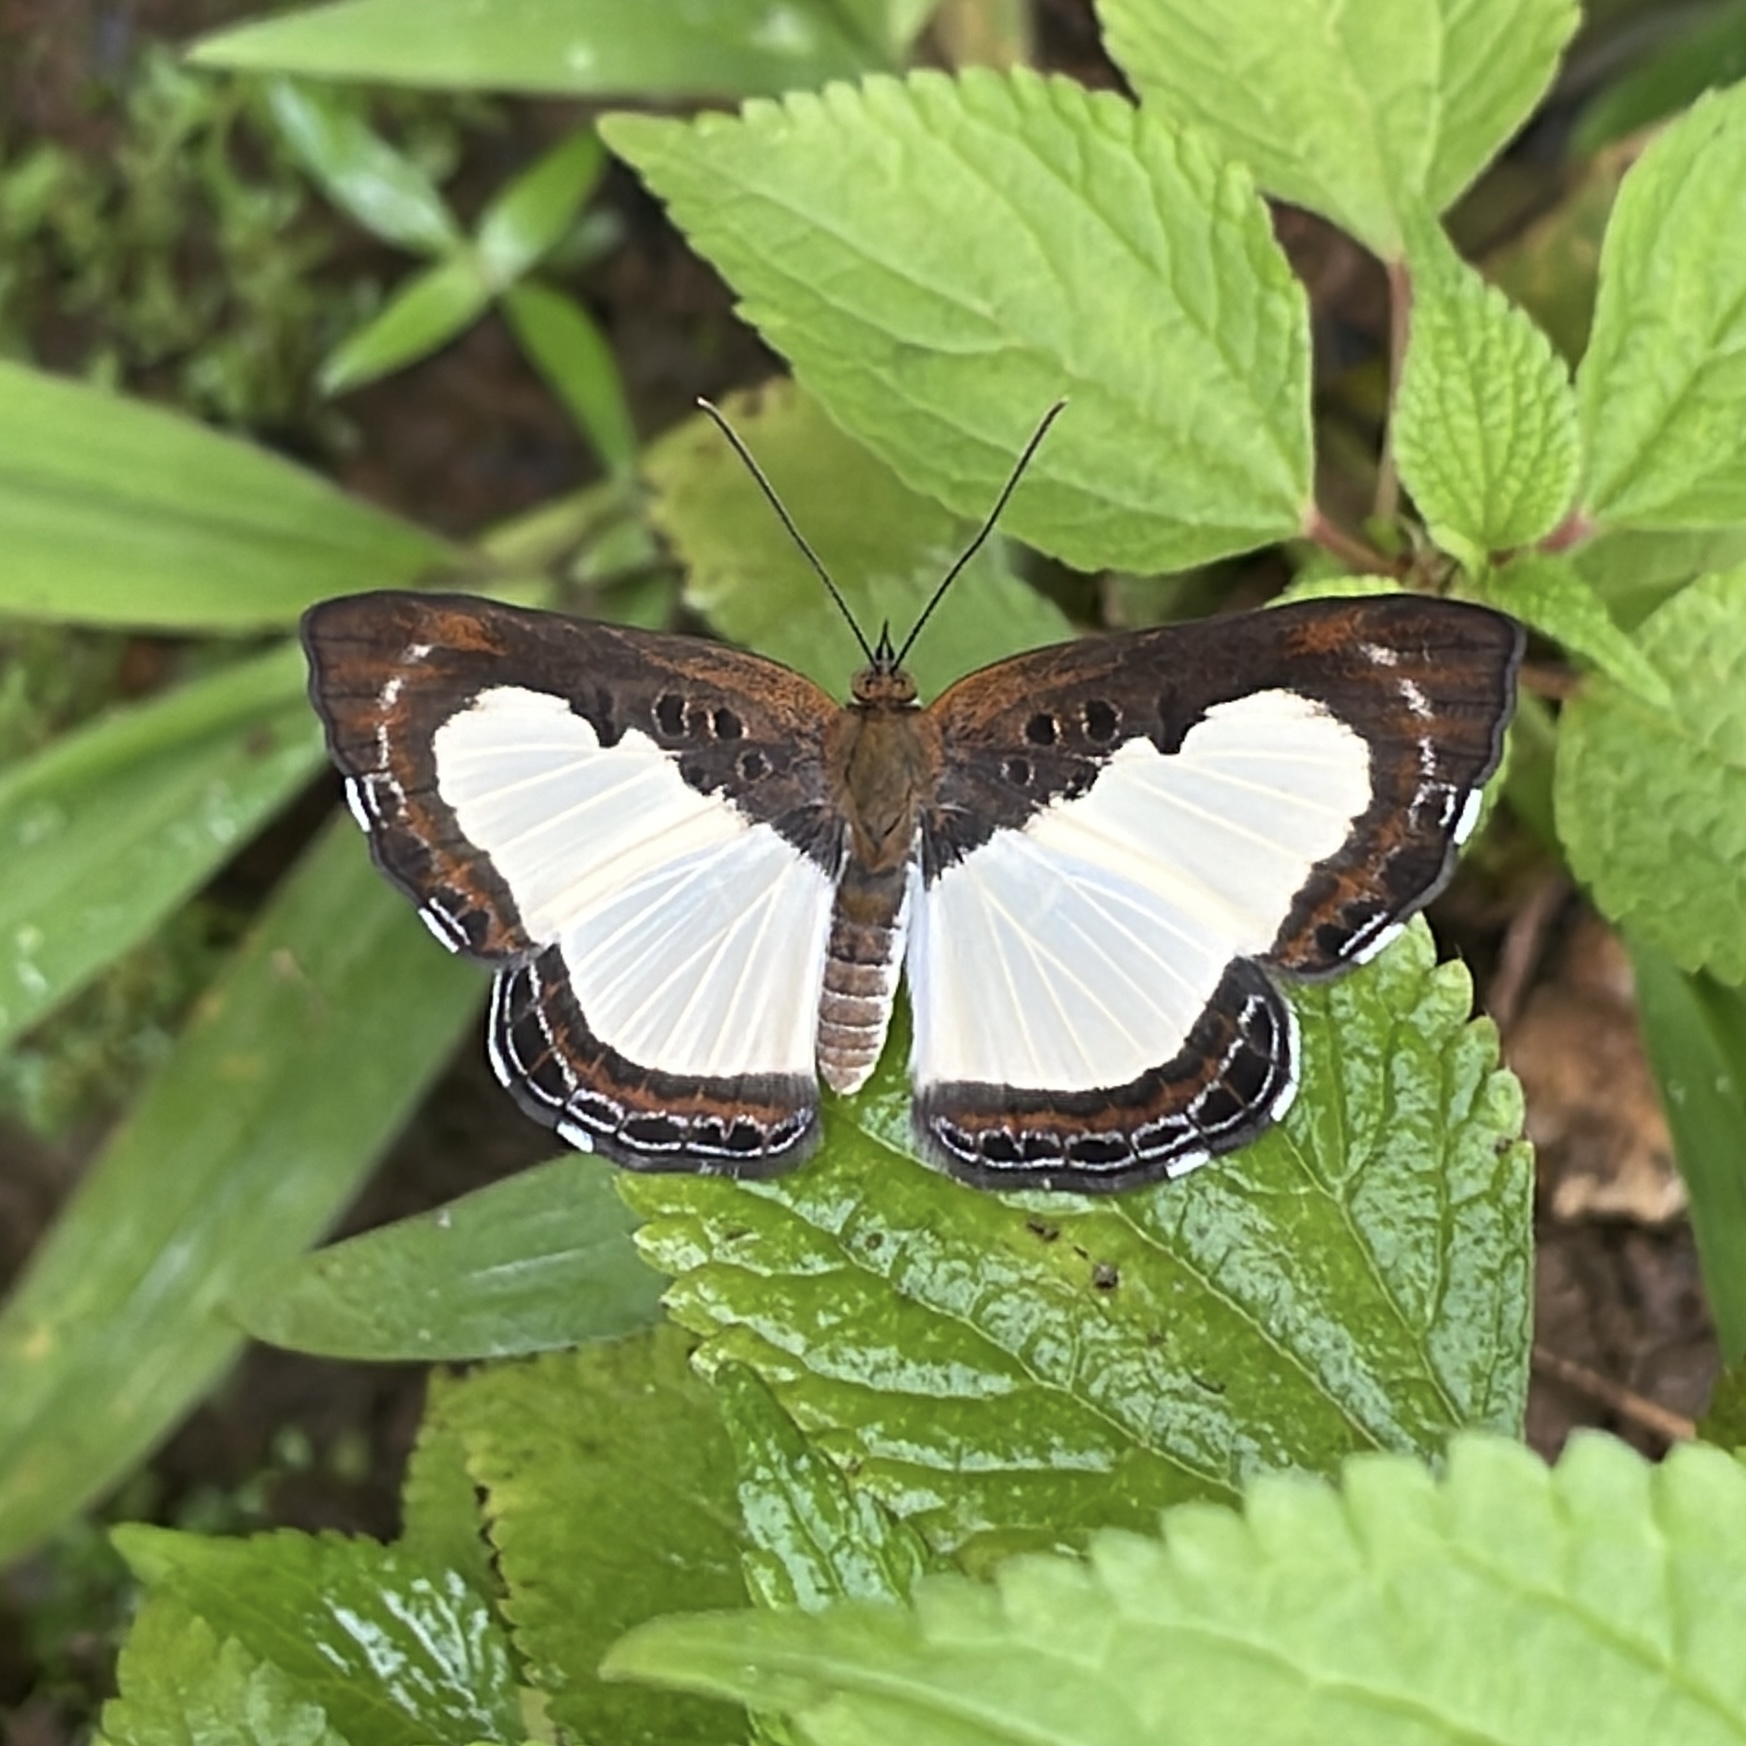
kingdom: Animalia
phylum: Arthropoda
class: Insecta
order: Lepidoptera
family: Riodinidae
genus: Nymula
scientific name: Nymula calyce
